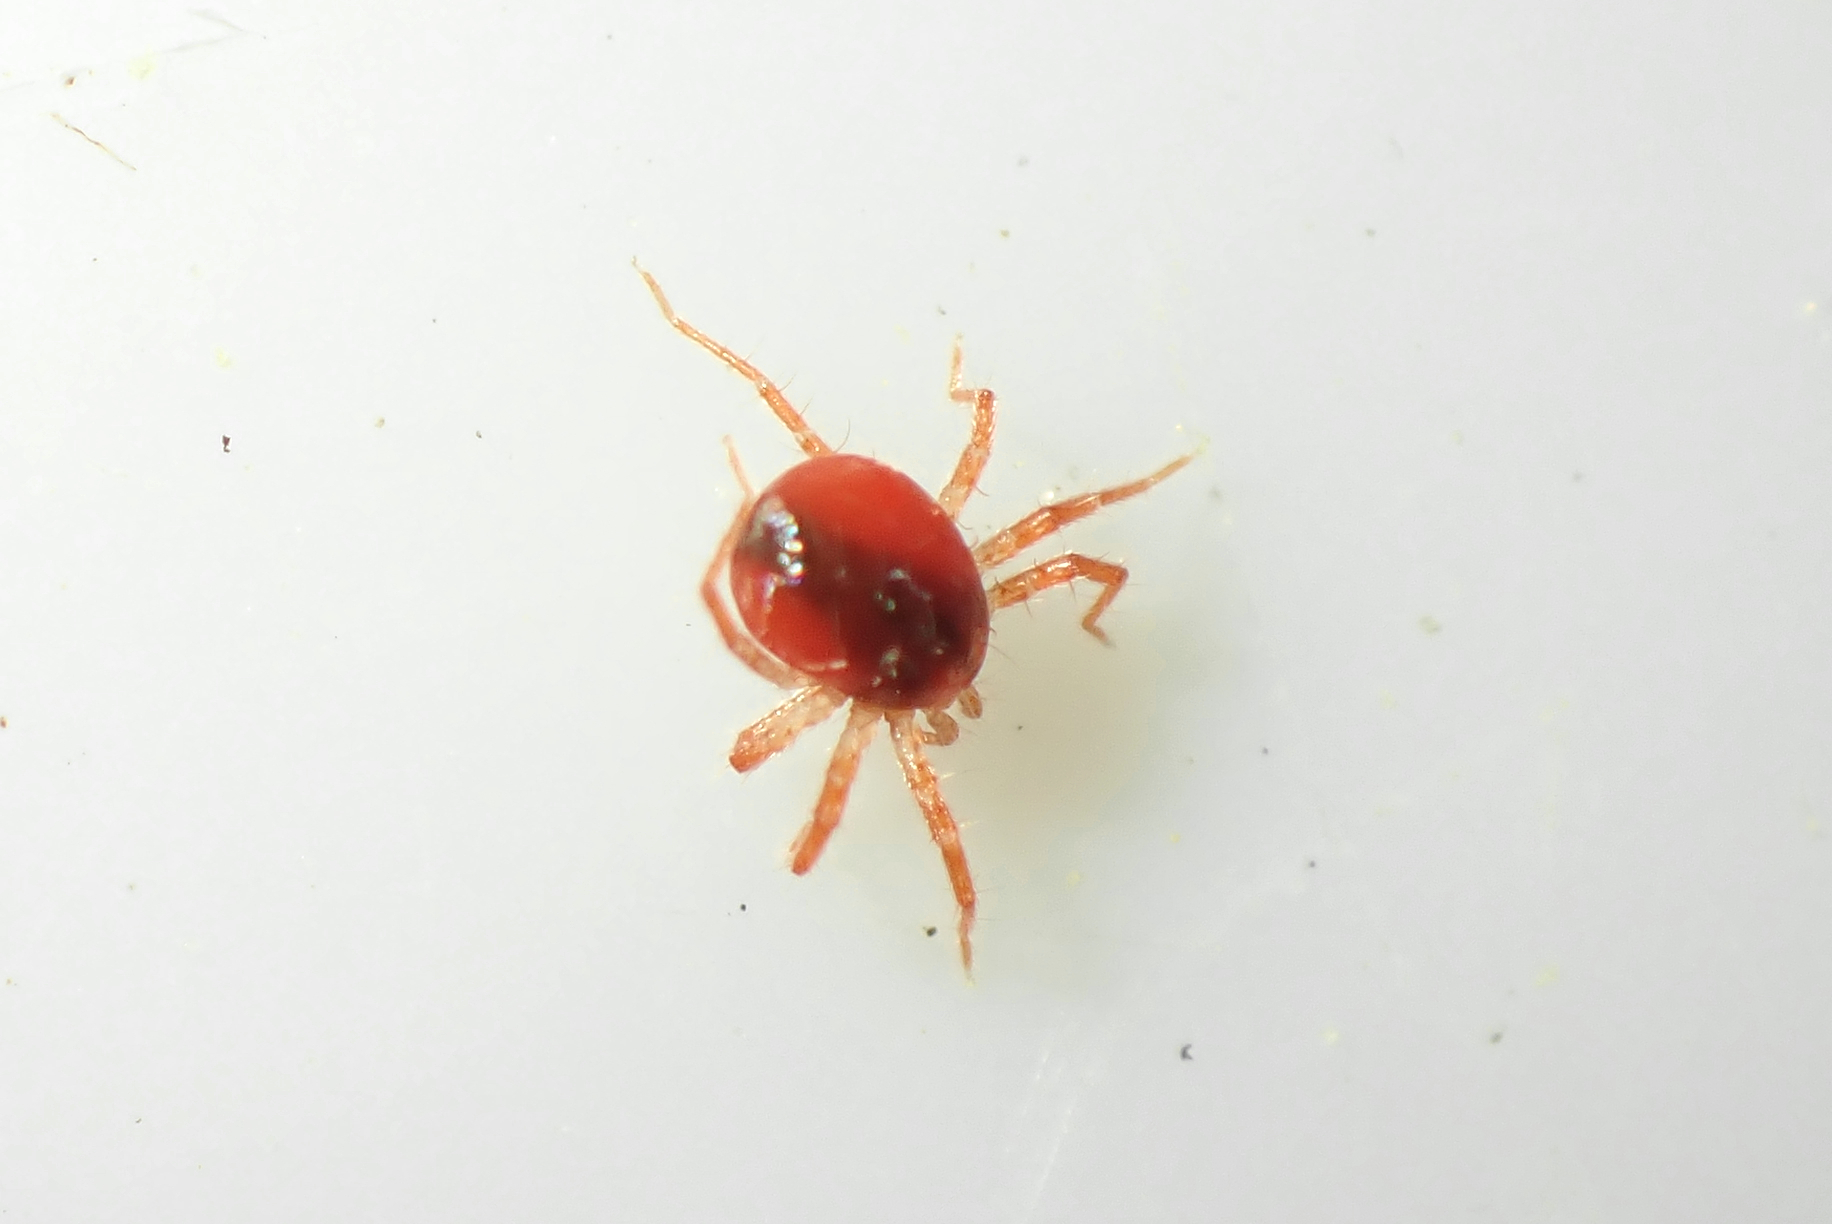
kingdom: Animalia
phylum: Arthropoda
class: Arachnida
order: Trombidiformes
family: Anystidae
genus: Anystis
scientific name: Anystis
